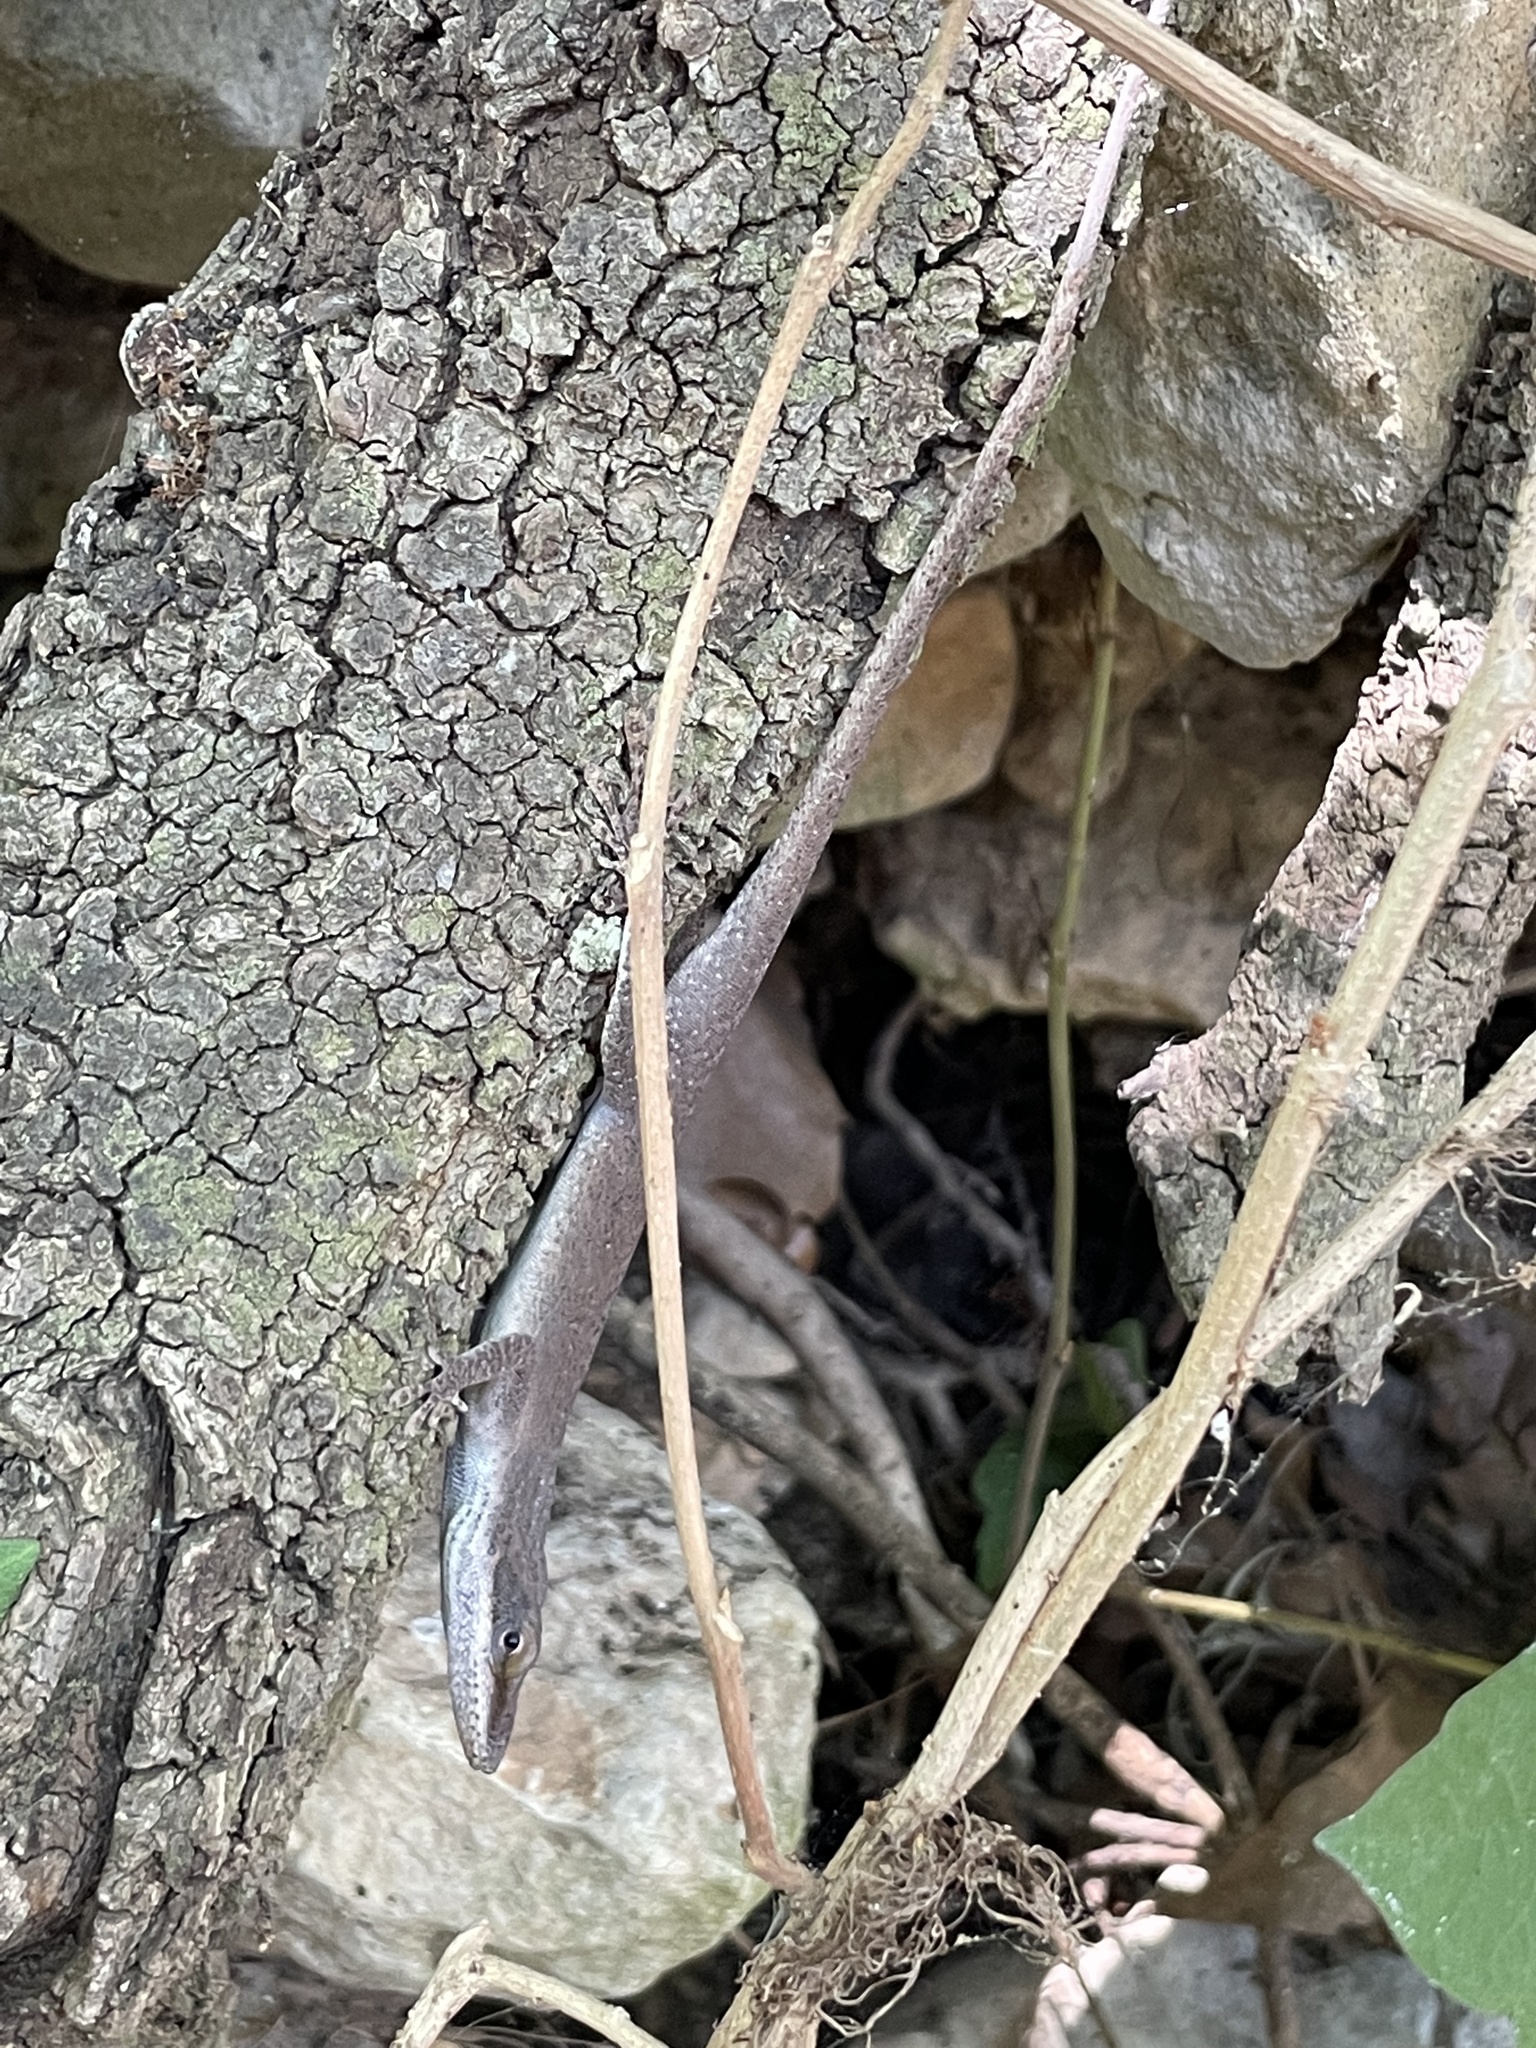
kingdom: Animalia
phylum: Chordata
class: Squamata
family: Dactyloidae
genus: Anolis
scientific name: Anolis carolinensis
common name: Green anole
